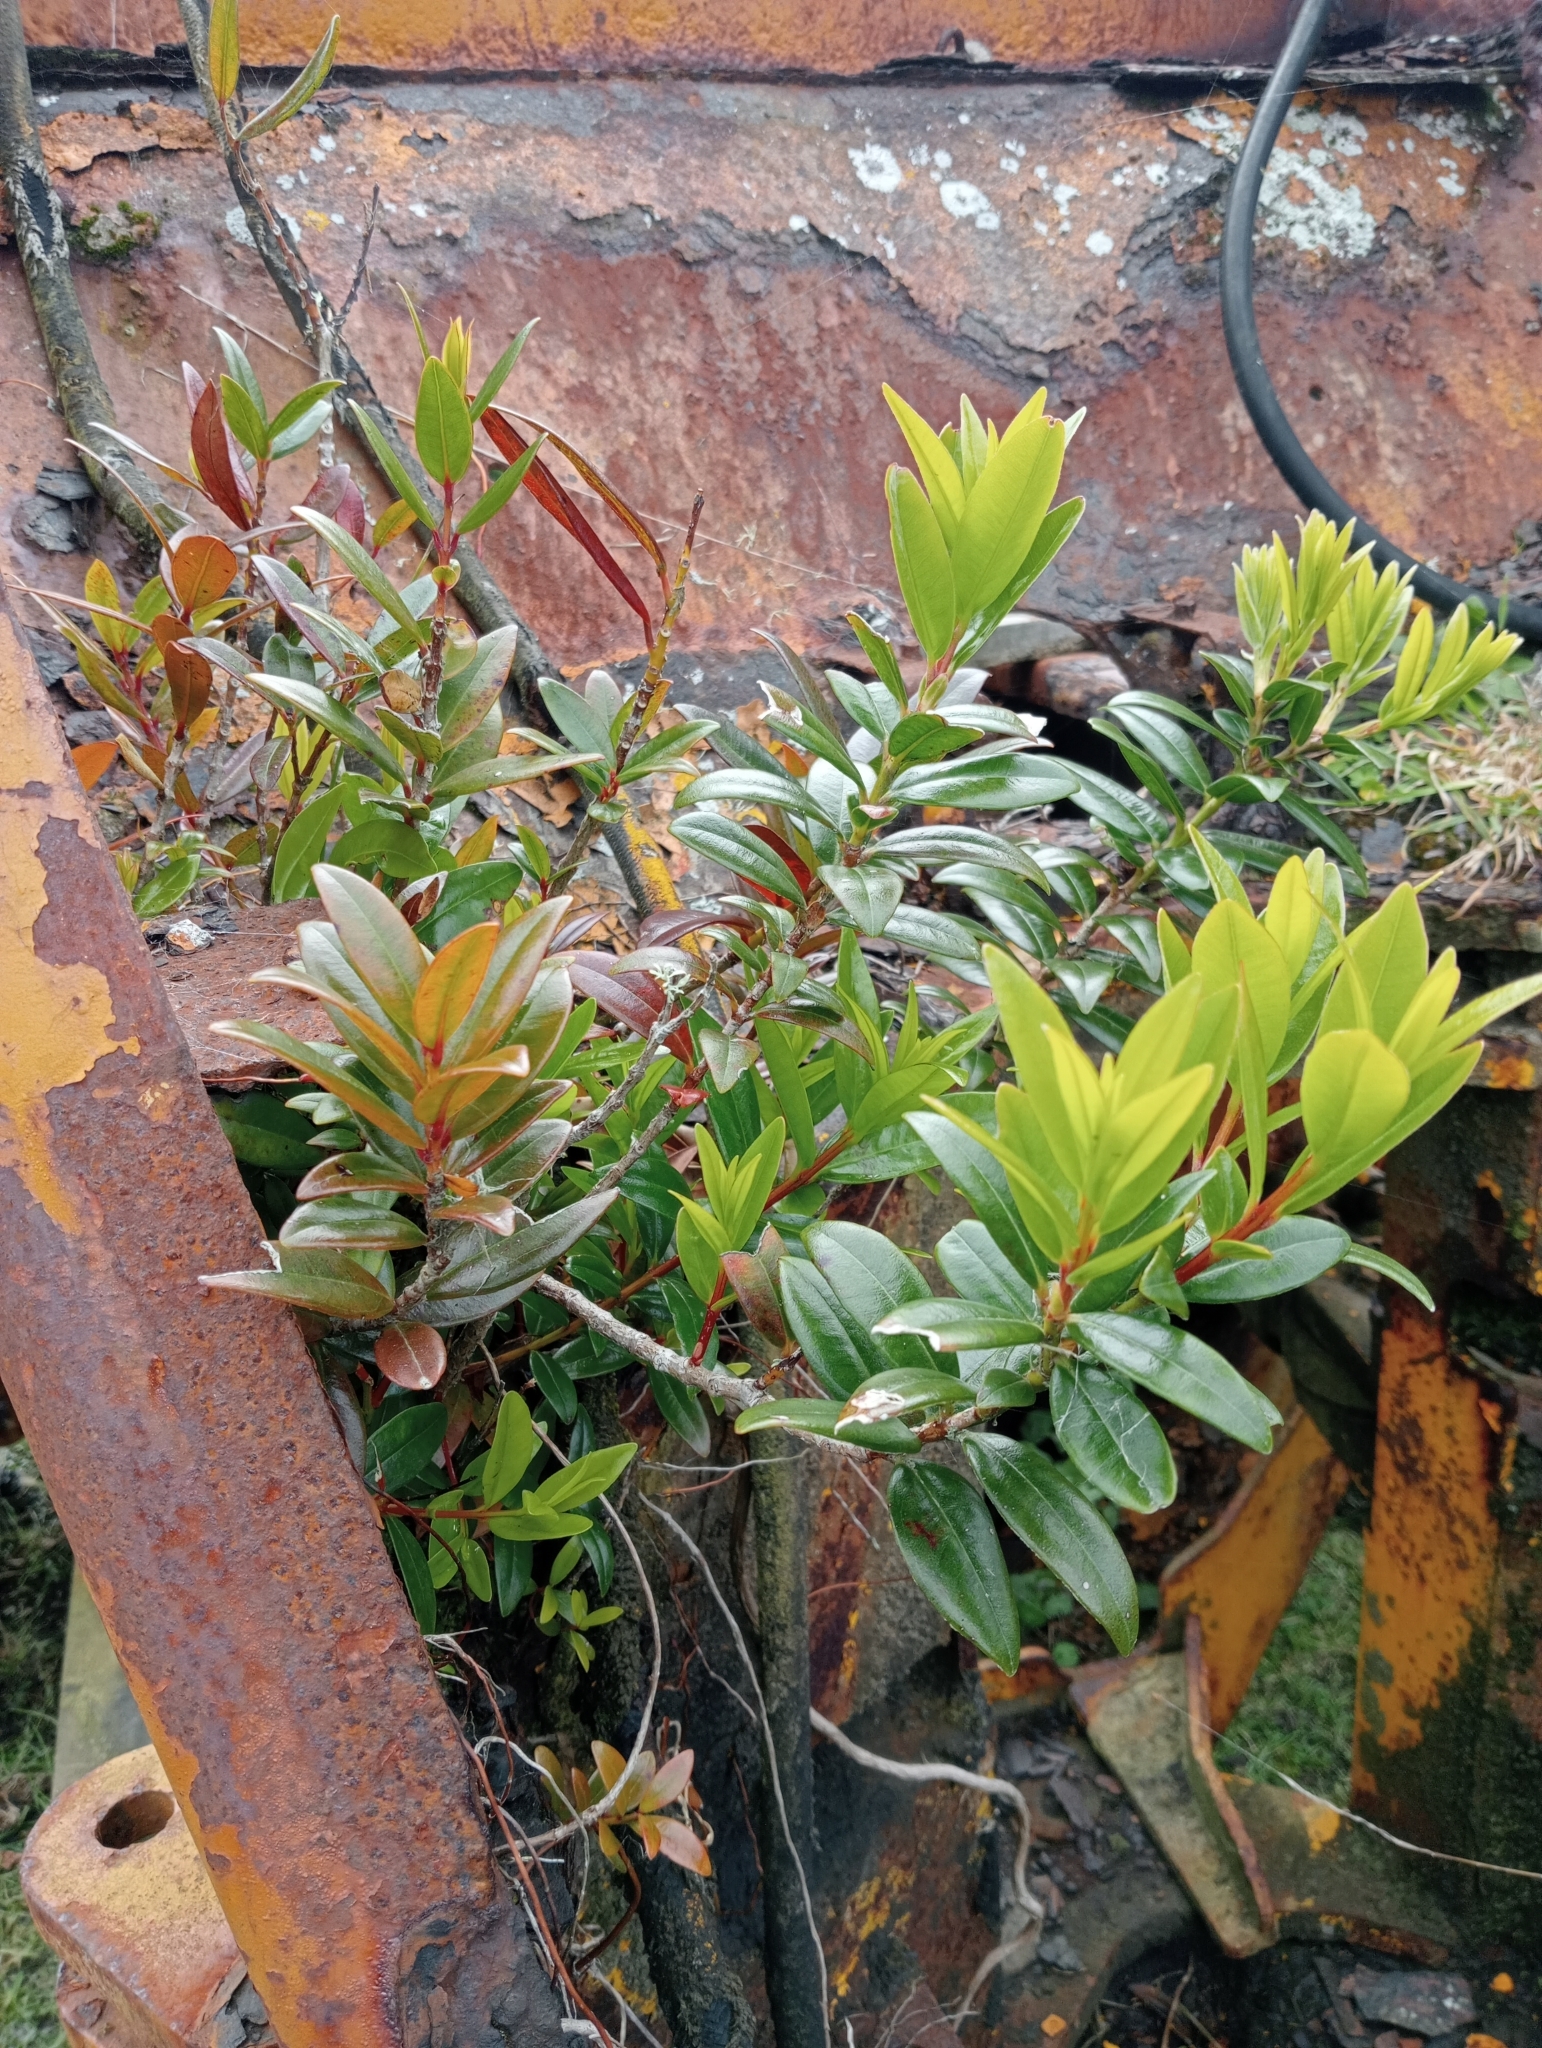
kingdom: Plantae
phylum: Tracheophyta
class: Magnoliopsida
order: Myrtales
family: Myrtaceae
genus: Metrosideros
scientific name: Metrosideros excelsa
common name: New zealand christmastree
